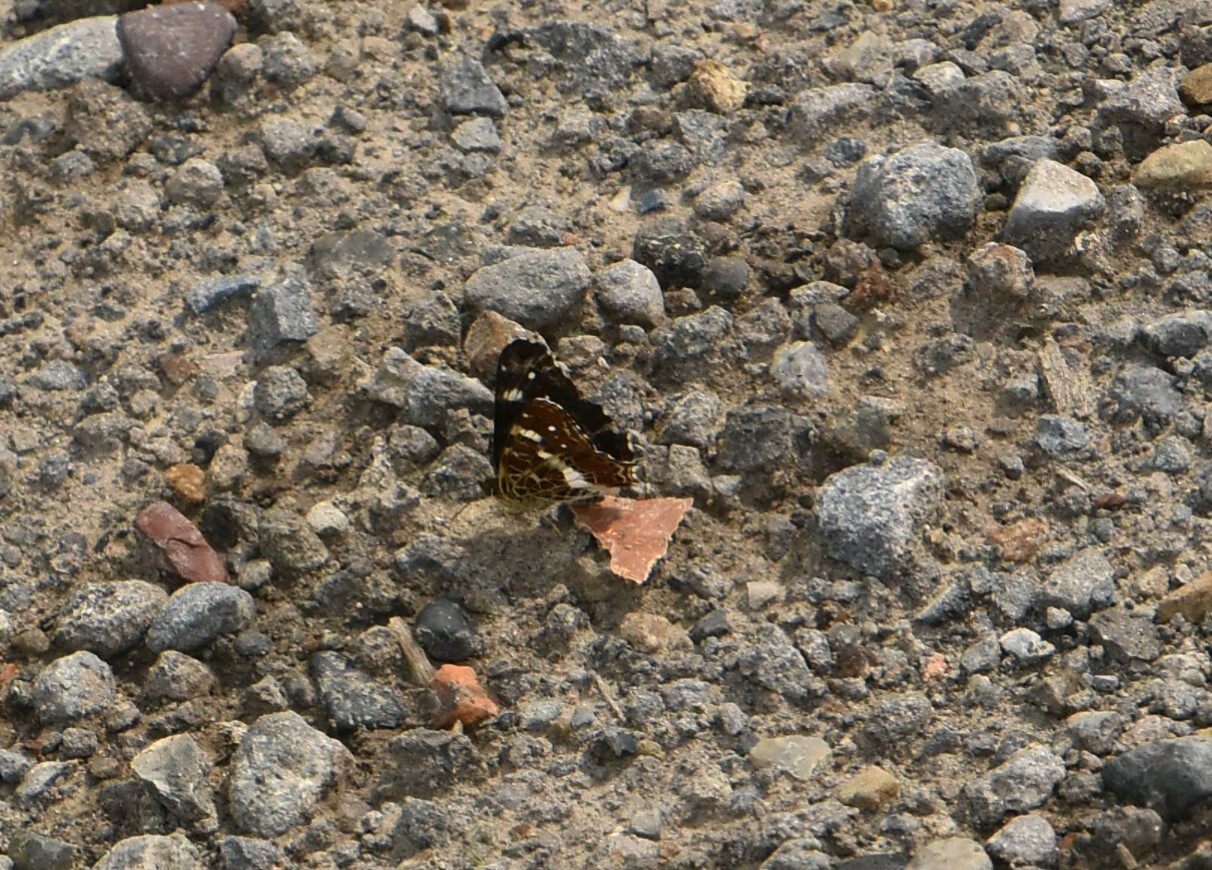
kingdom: Animalia
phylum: Arthropoda
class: Insecta
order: Lepidoptera
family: Nymphalidae
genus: Araschnia
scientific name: Araschnia levana
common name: Map butterfly
